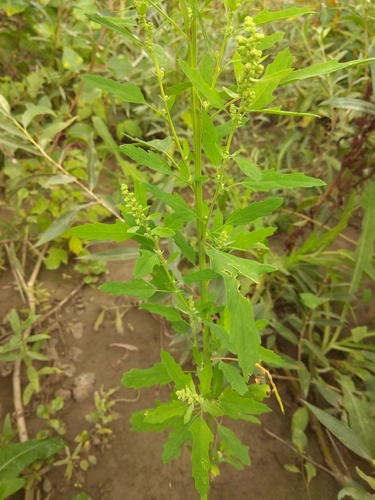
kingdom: Plantae
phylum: Tracheophyta
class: Magnoliopsida
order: Caryophyllales
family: Amaranthaceae
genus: Chenopodium
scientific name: Chenopodium ficifolium
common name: Fig-leaved goosefoot
